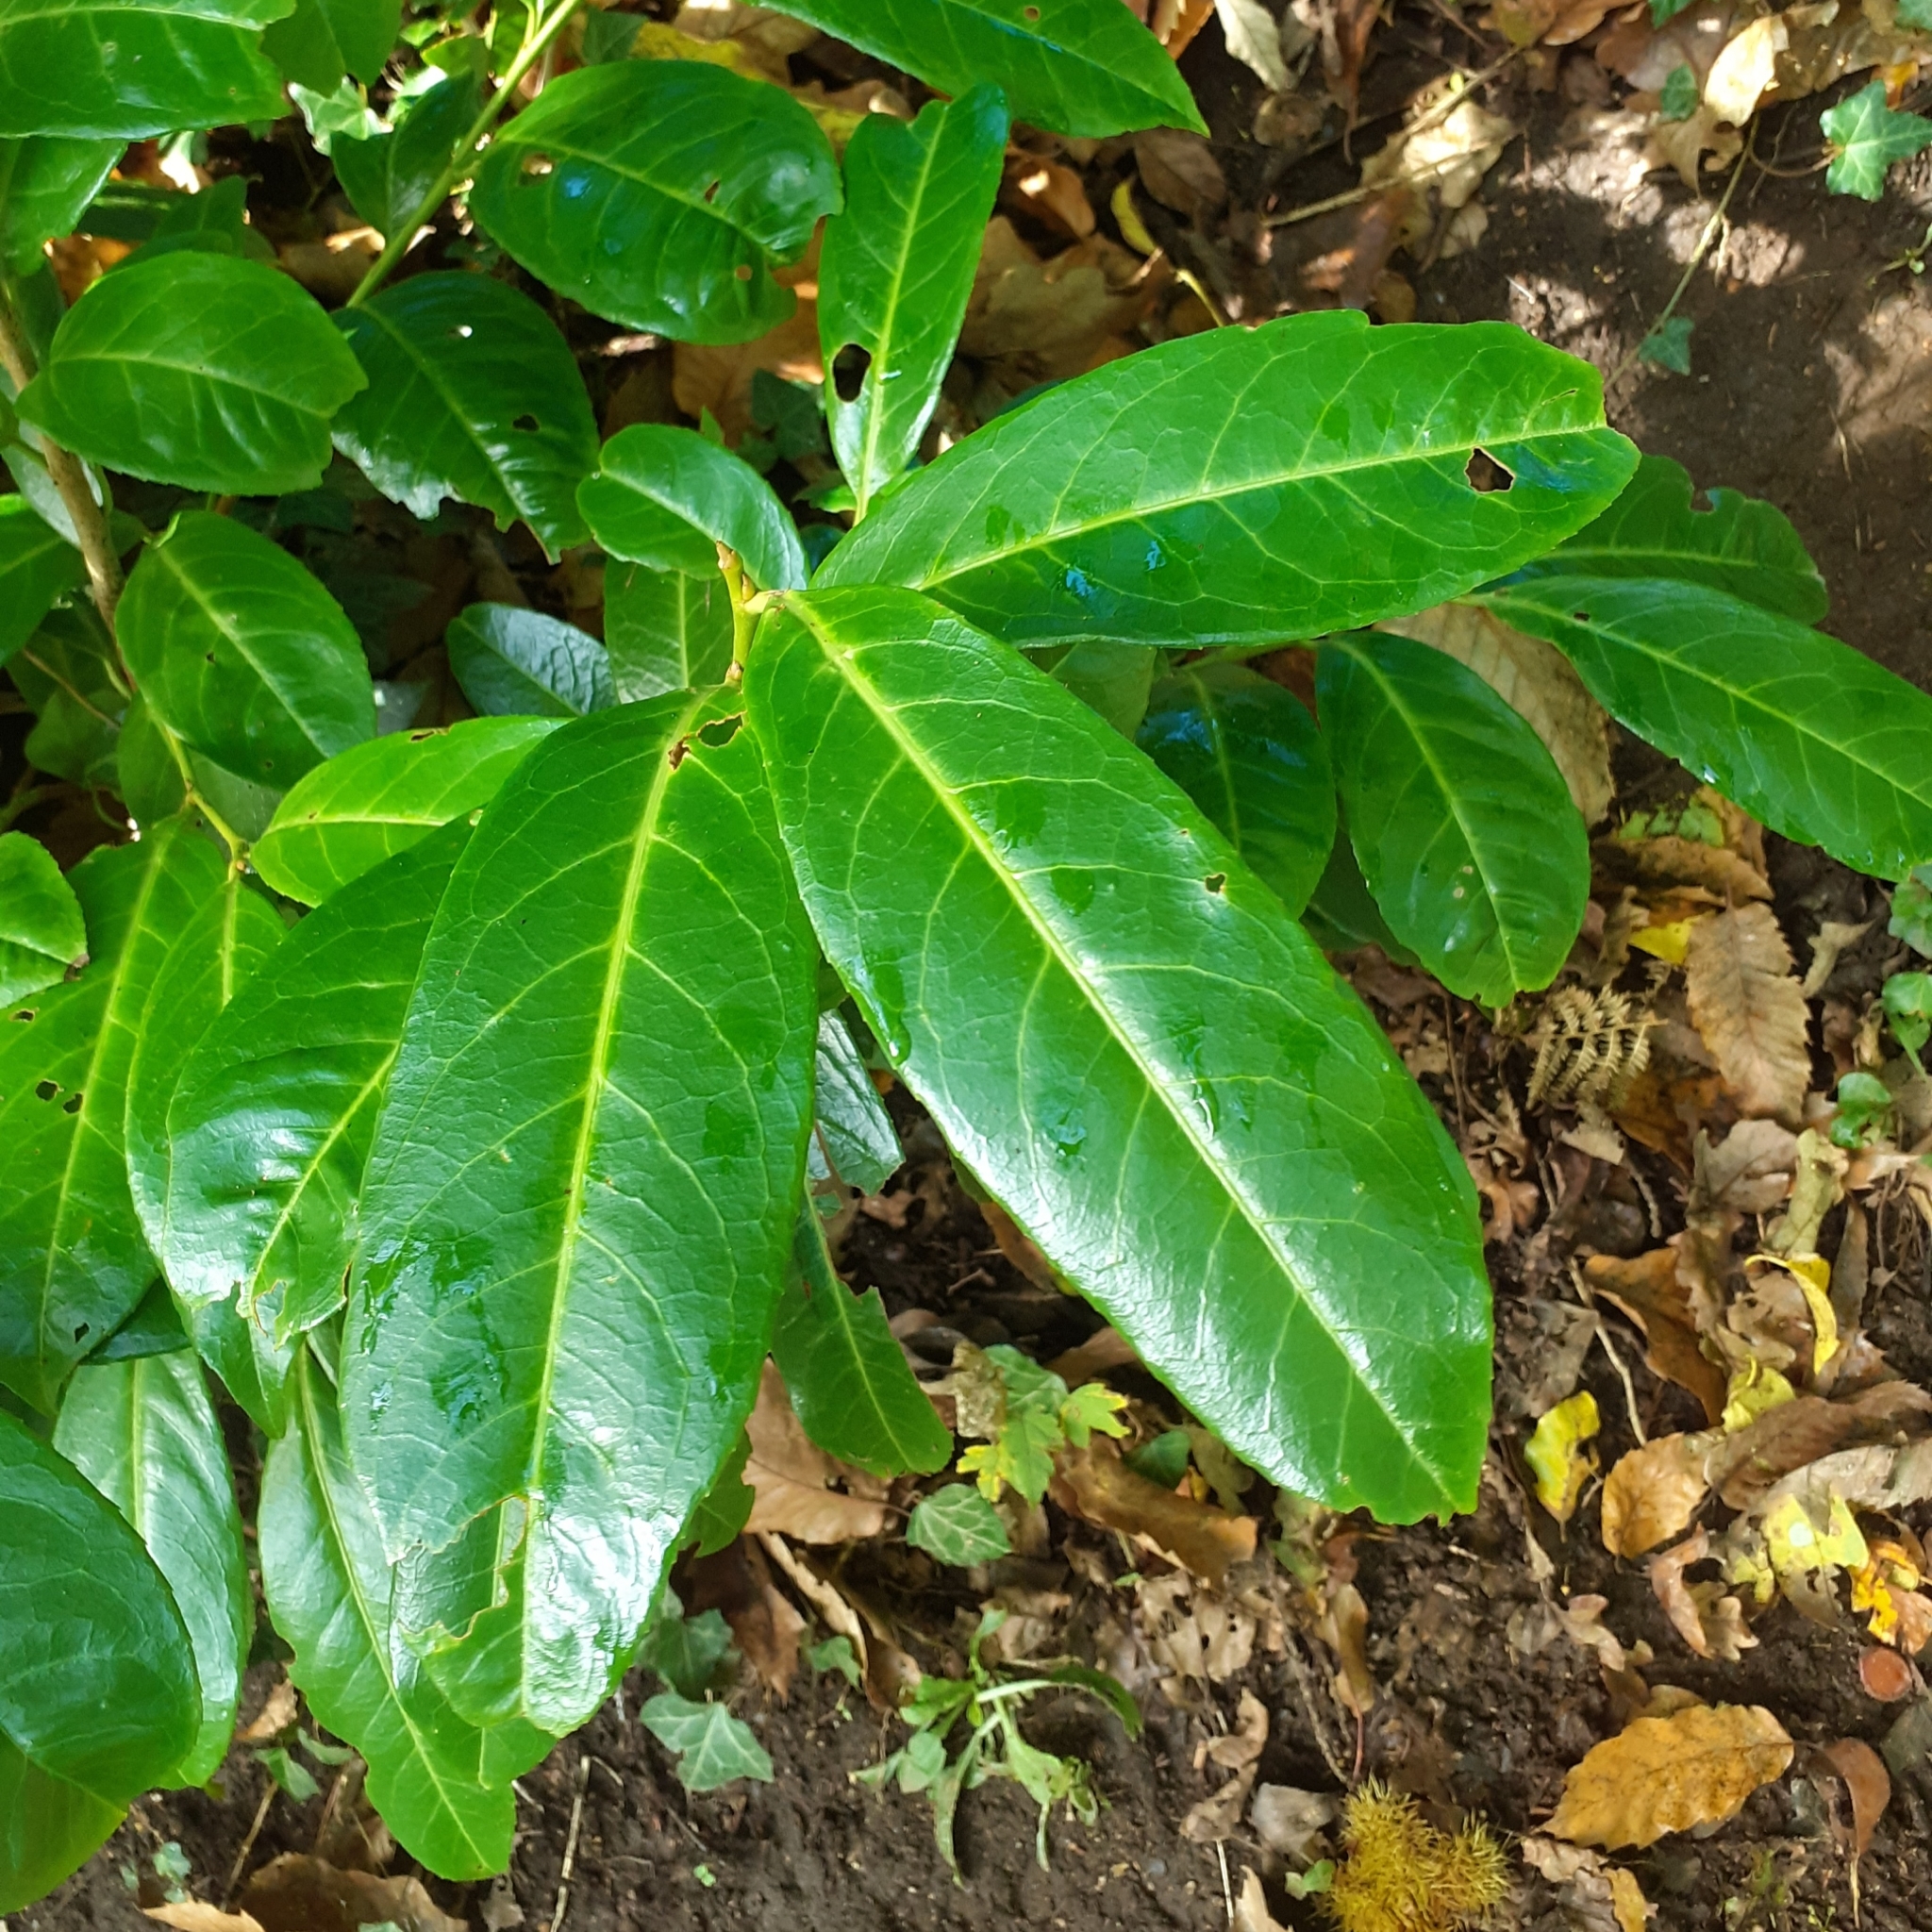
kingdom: Plantae
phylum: Tracheophyta
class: Magnoliopsida
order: Rosales
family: Rosaceae
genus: Prunus
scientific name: Prunus laurocerasus
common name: Cherry laurel
